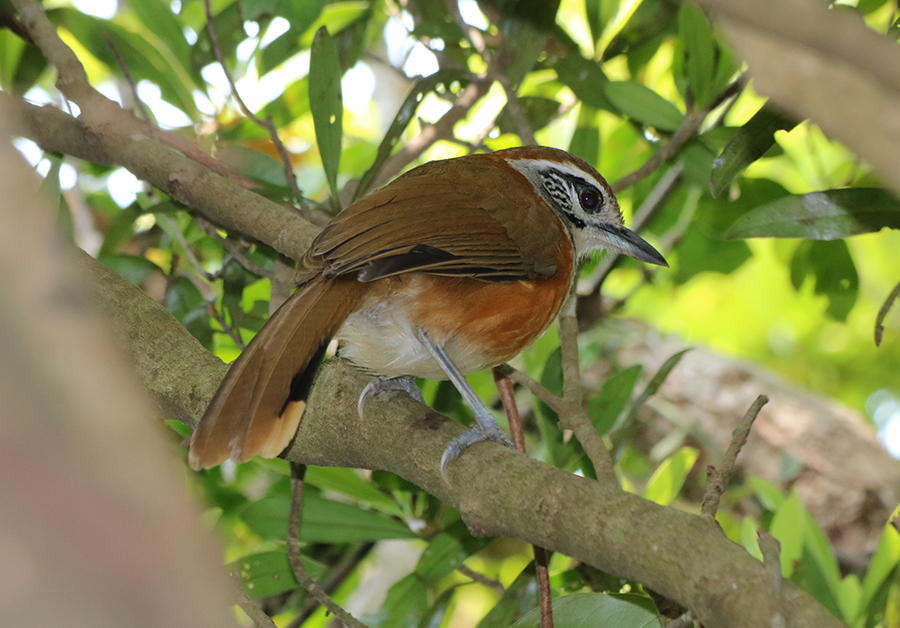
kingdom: Animalia
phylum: Chordata
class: Aves
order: Passeriformes
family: Leiothrichidae
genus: Garrulax
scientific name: Garrulax pectoralis
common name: Greater necklaced laughingthrush
